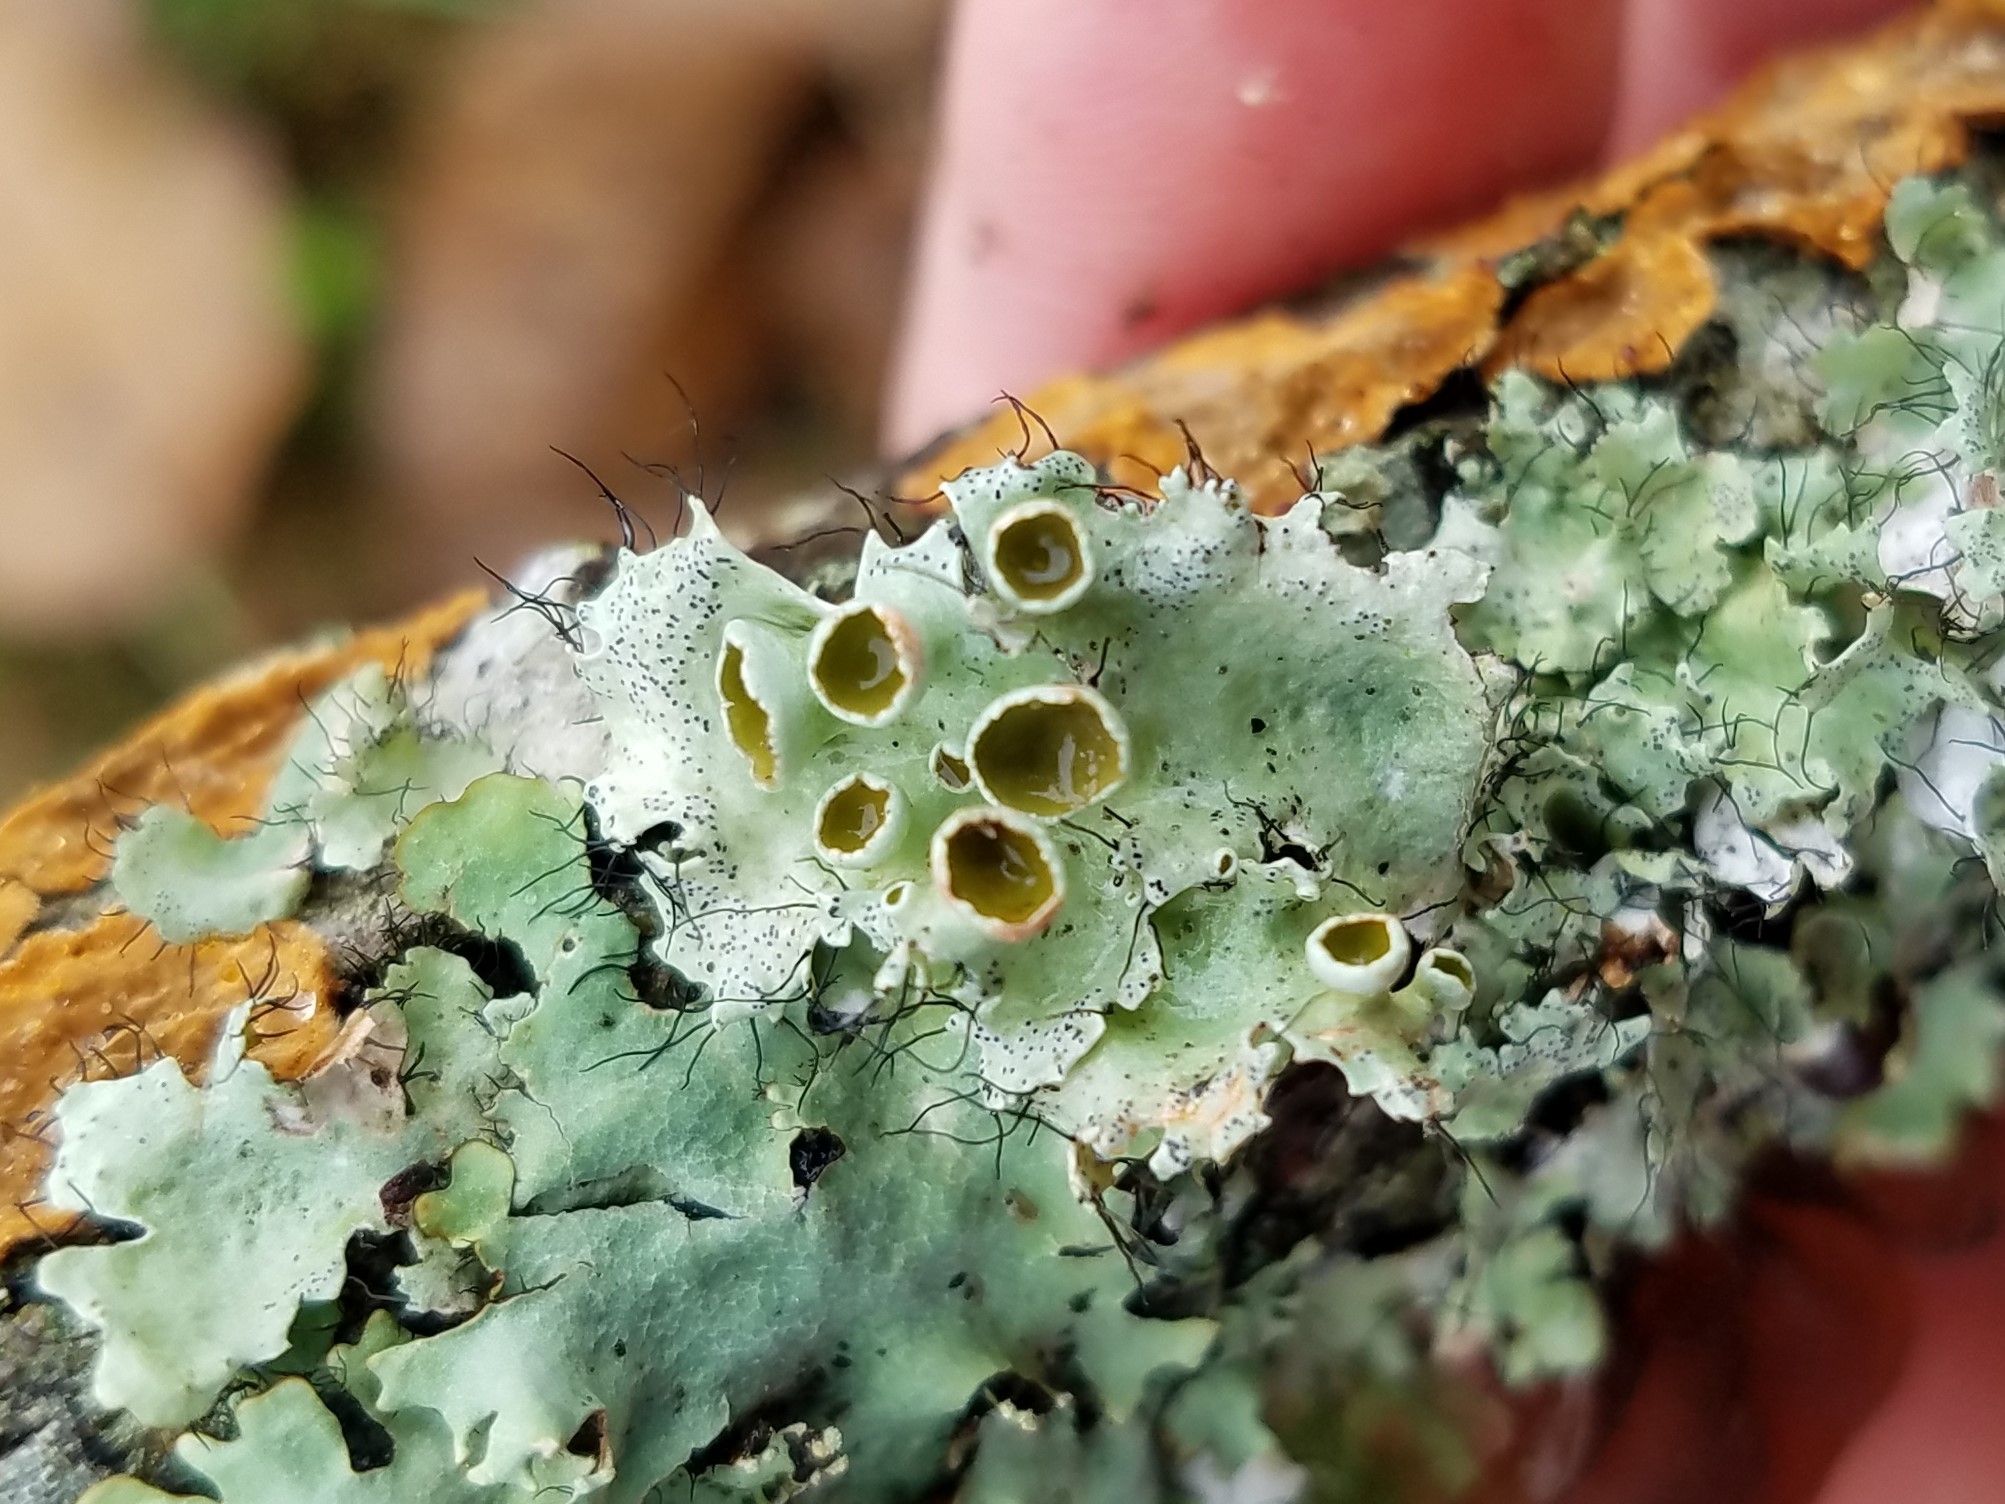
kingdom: Fungi
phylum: Ascomycota
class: Lecanoromycetes
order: Lecanorales
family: Parmeliaceae
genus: Parmotrema
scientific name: Parmotrema perforatum
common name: Perforated ruffle lichen
